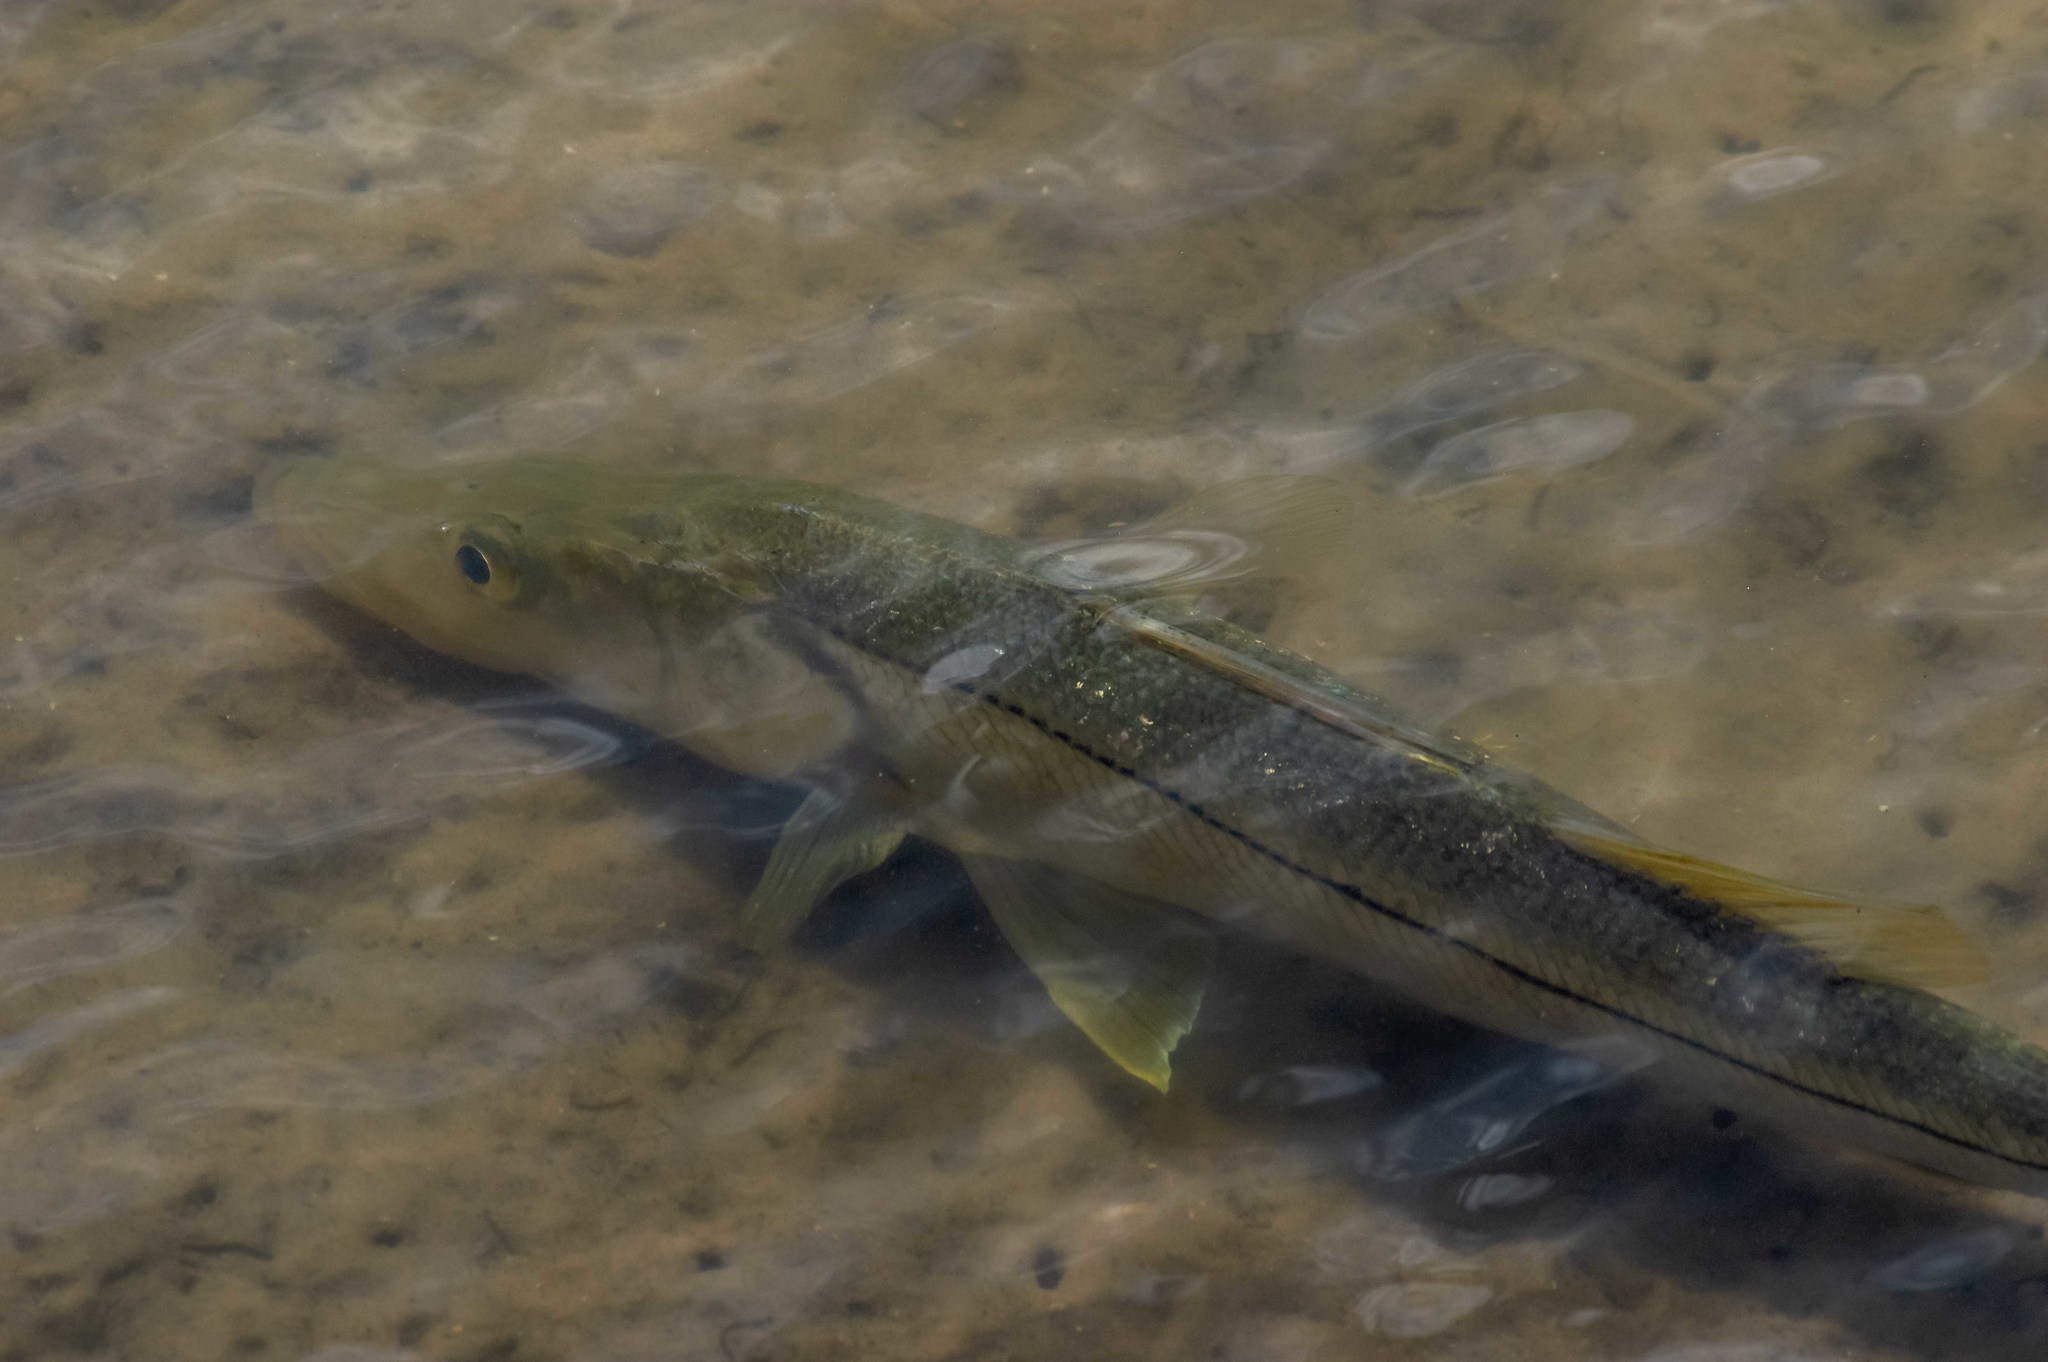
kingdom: Animalia
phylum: Chordata
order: Perciformes
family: Centropomidae
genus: Centropomus
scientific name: Centropomus undecimalis
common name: Snook
